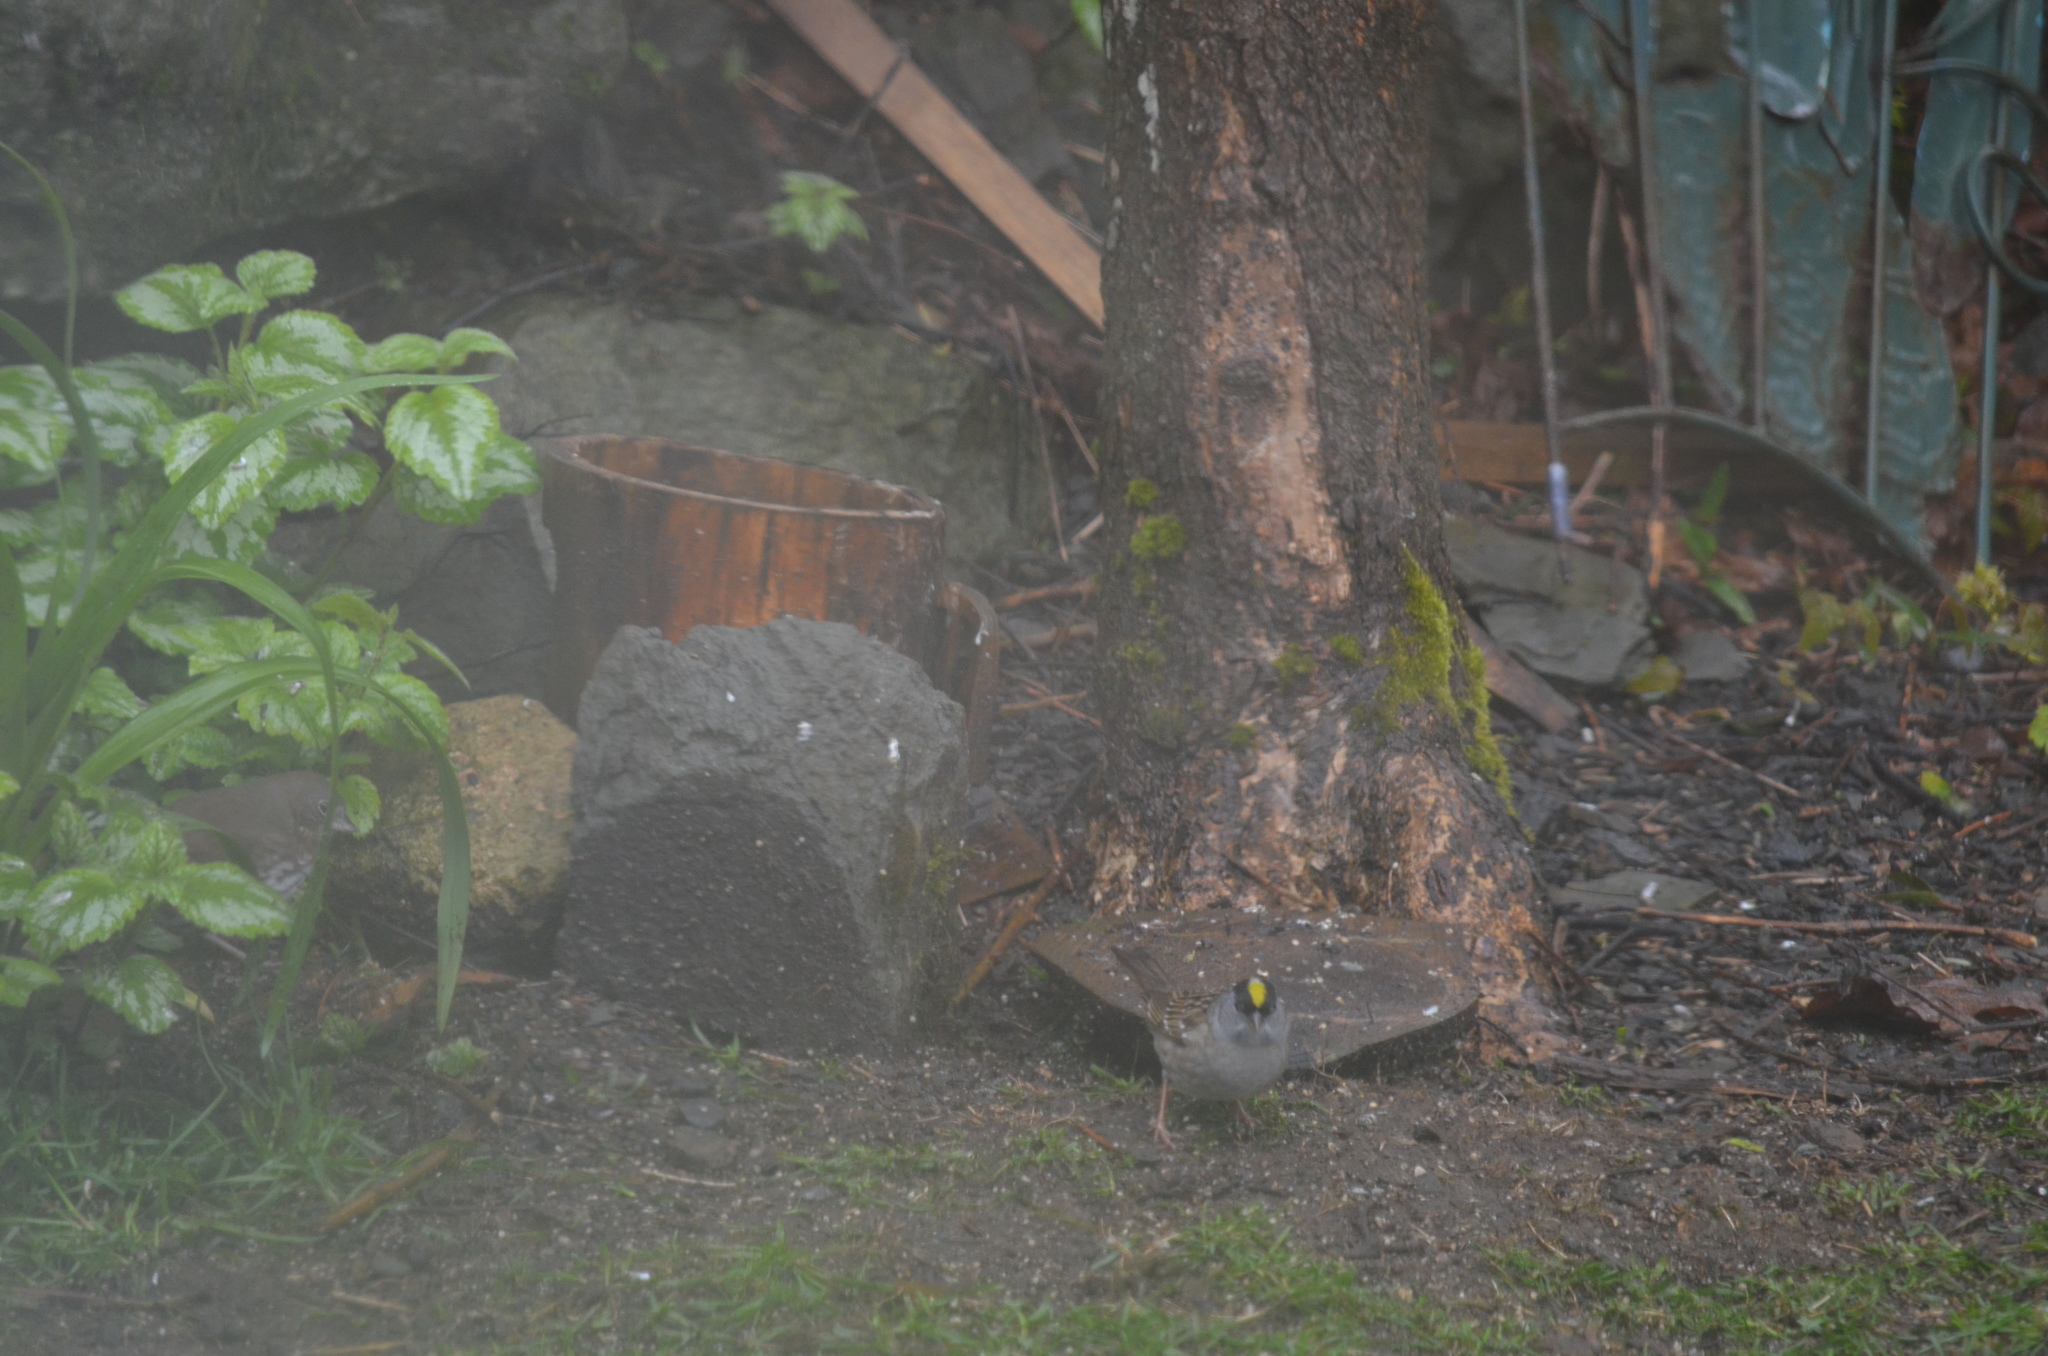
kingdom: Animalia
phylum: Chordata
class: Aves
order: Passeriformes
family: Passerellidae
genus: Zonotrichia
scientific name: Zonotrichia atricapilla
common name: Golden-crowned sparrow
